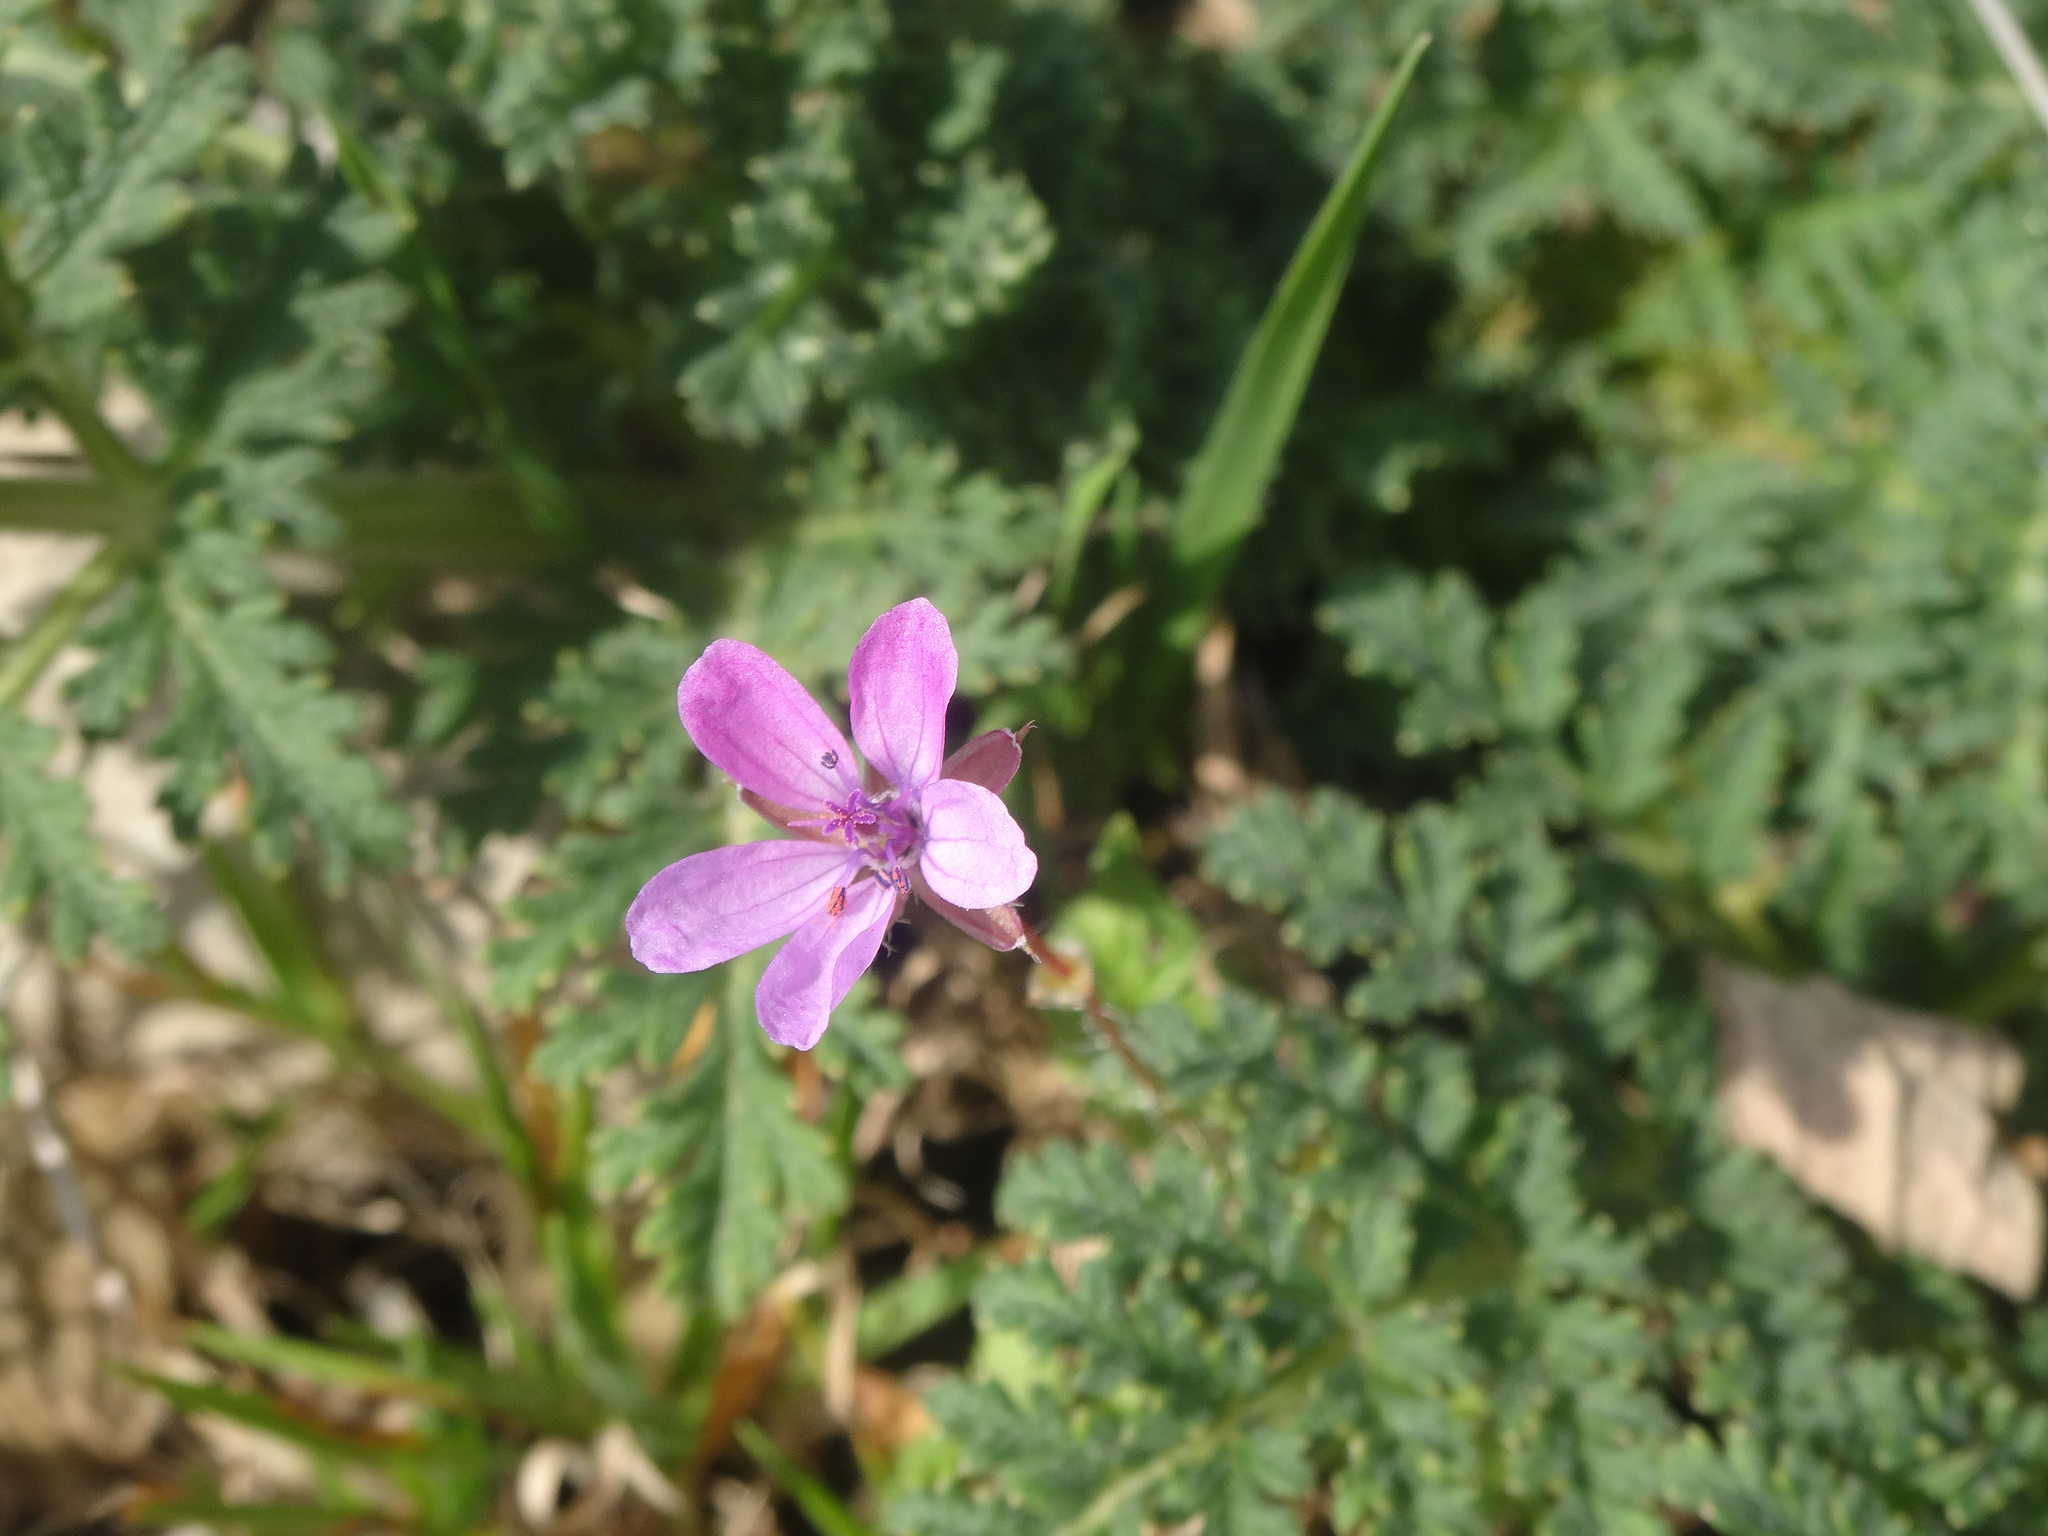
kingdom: Plantae
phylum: Tracheophyta
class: Magnoliopsida
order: Geraniales
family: Geraniaceae
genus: Erodium
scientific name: Erodium cicutarium
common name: Common stork's-bill
